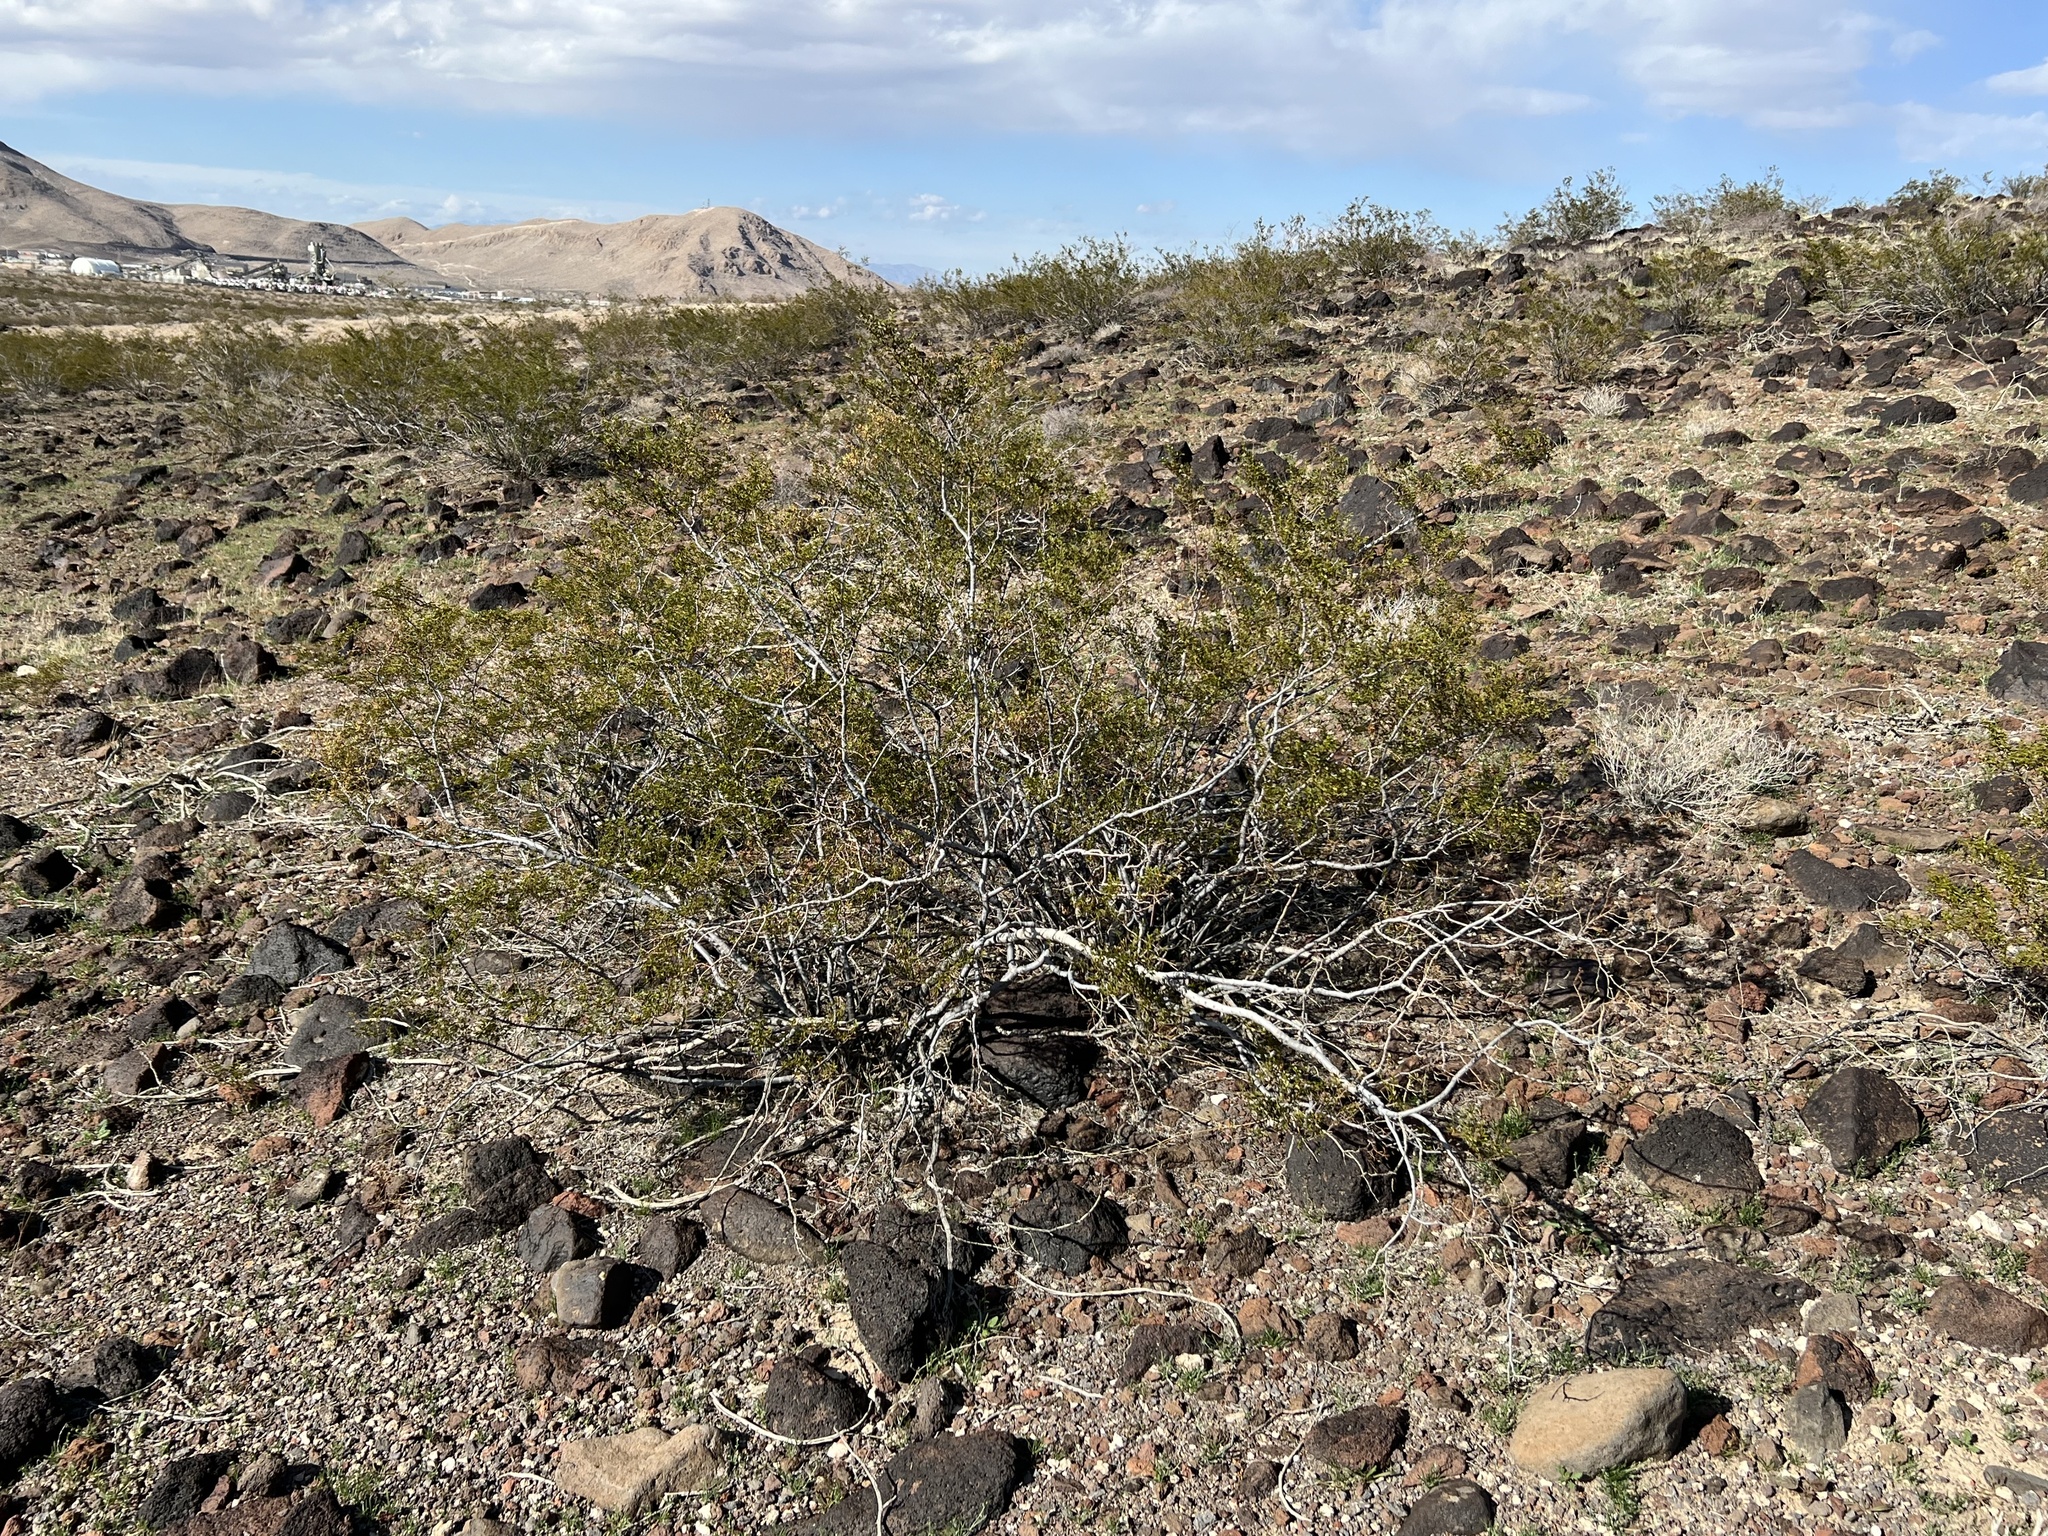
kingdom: Plantae
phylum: Tracheophyta
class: Magnoliopsida
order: Zygophyllales
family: Zygophyllaceae
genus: Larrea
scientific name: Larrea tridentata
